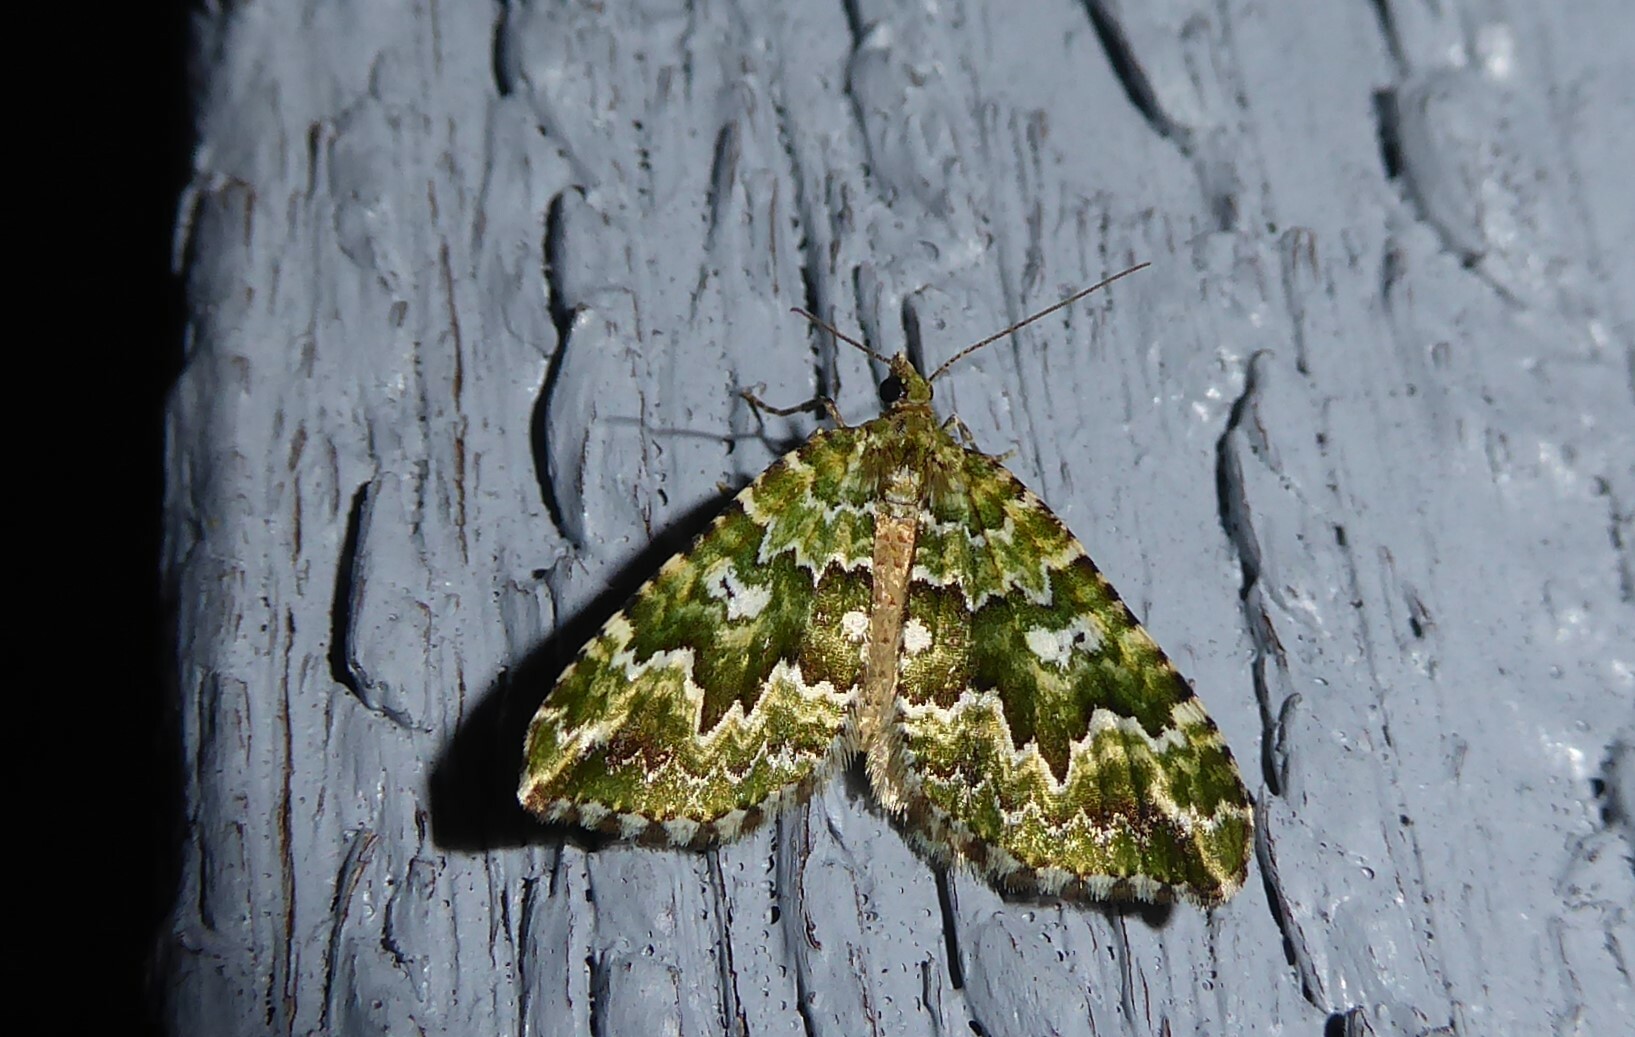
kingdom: Animalia
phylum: Arthropoda
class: Insecta
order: Lepidoptera
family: Geometridae
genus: Asaphodes
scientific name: Asaphodes beata
